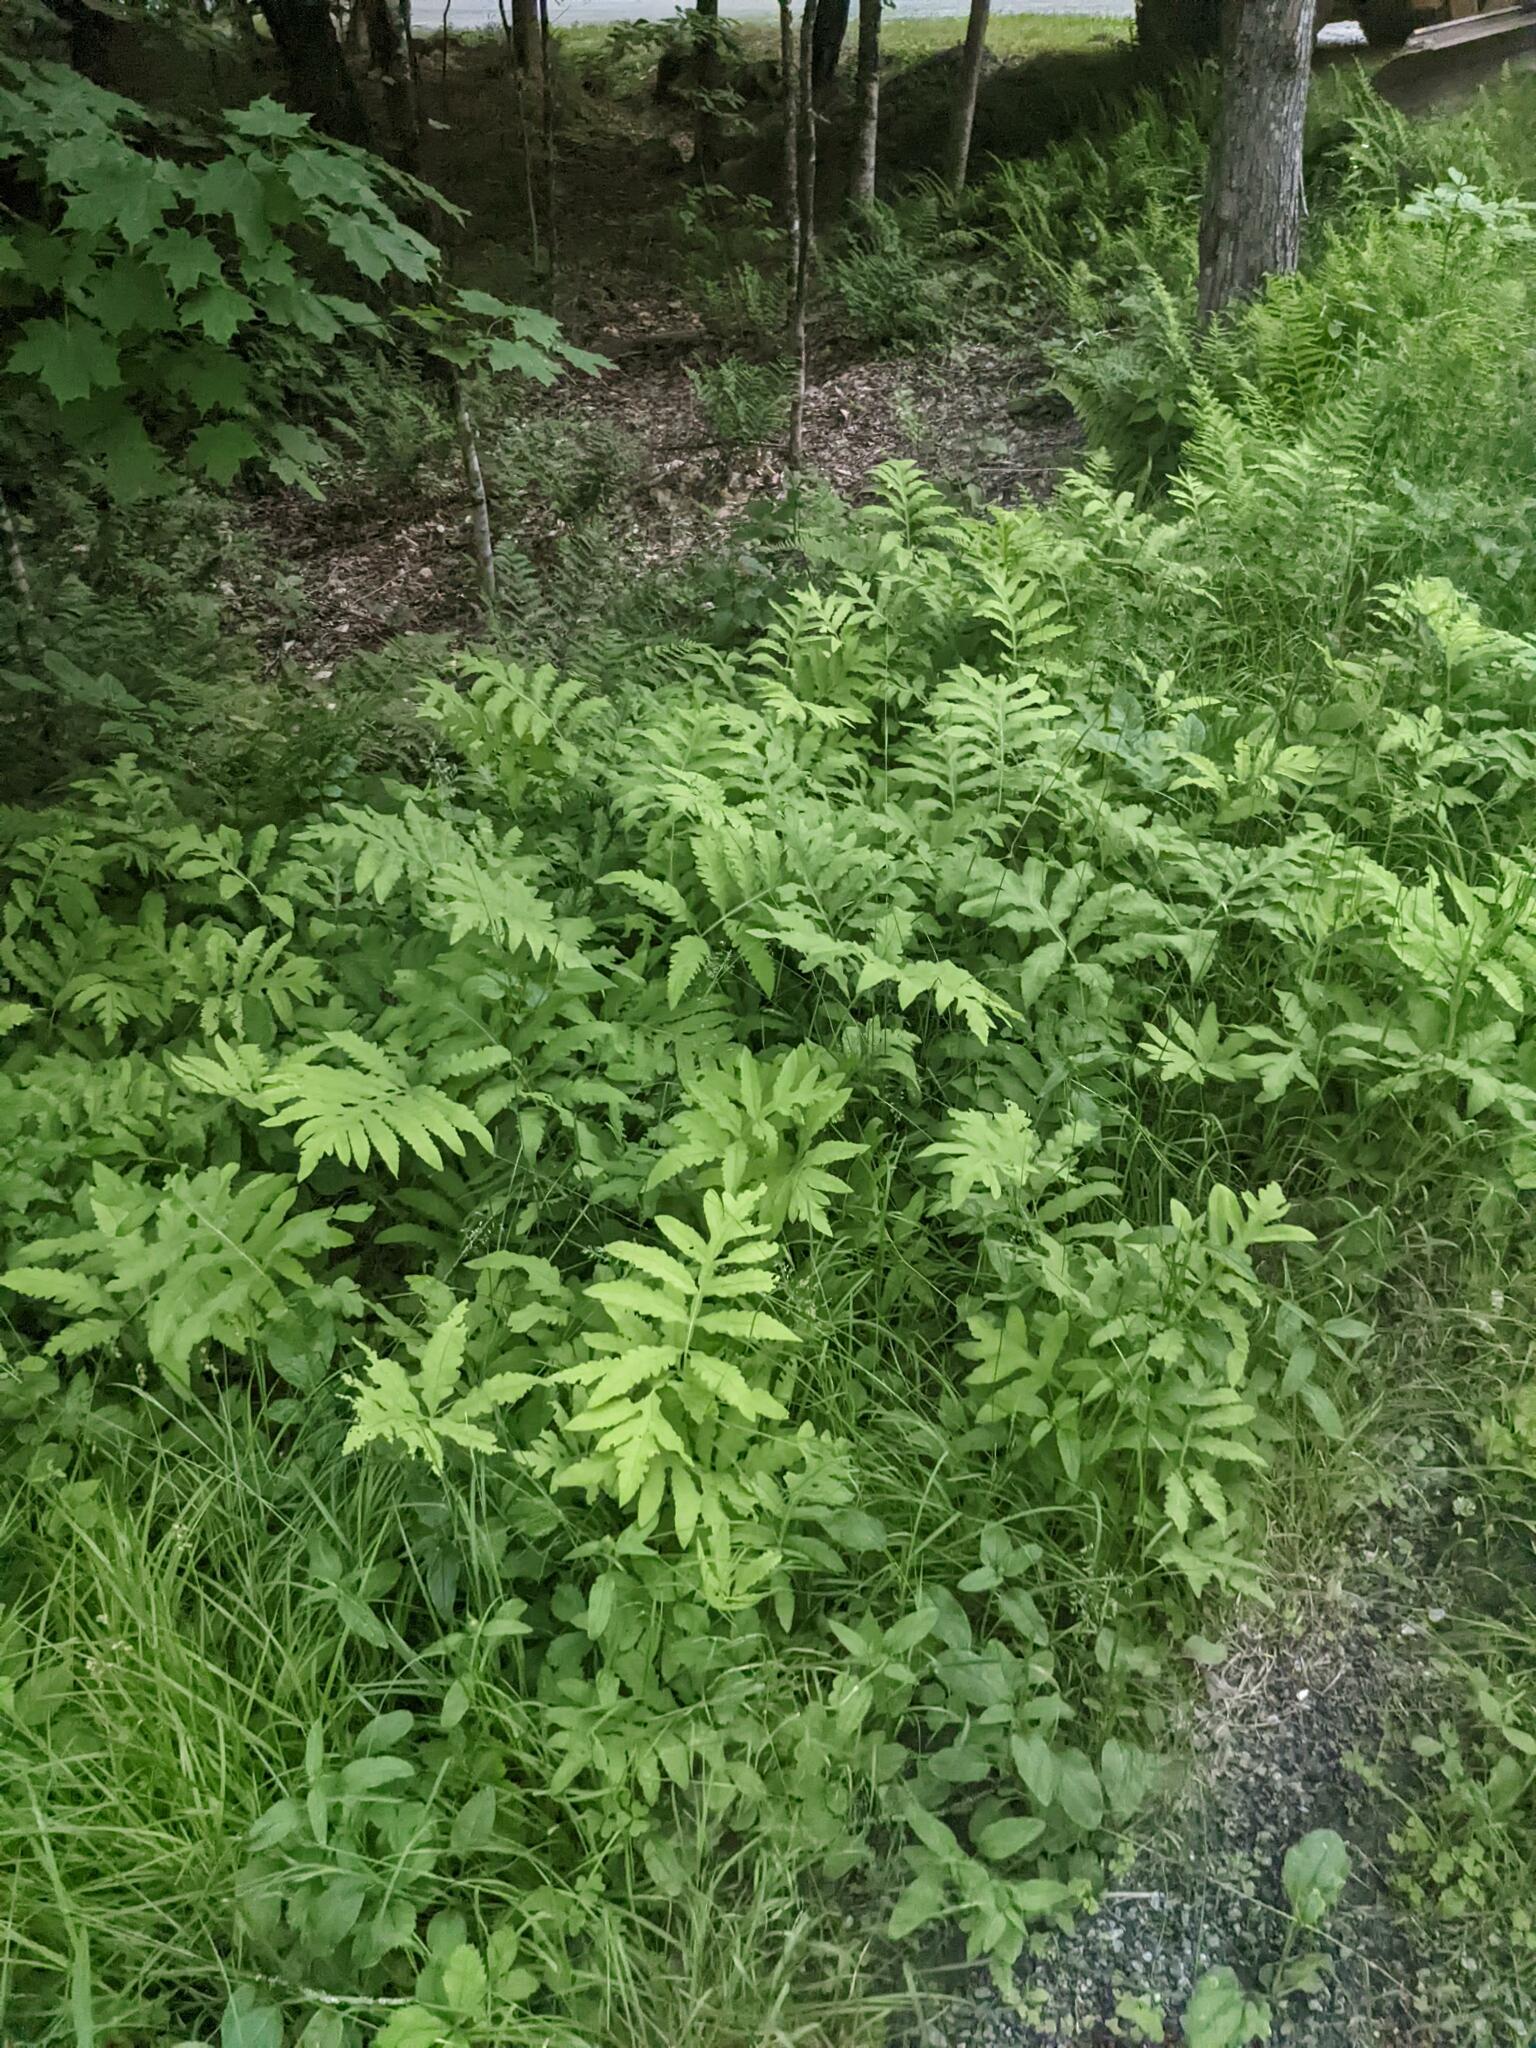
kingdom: Plantae
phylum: Tracheophyta
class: Polypodiopsida
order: Polypodiales
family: Onocleaceae
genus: Onoclea
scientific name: Onoclea sensibilis
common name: Sensitive fern
